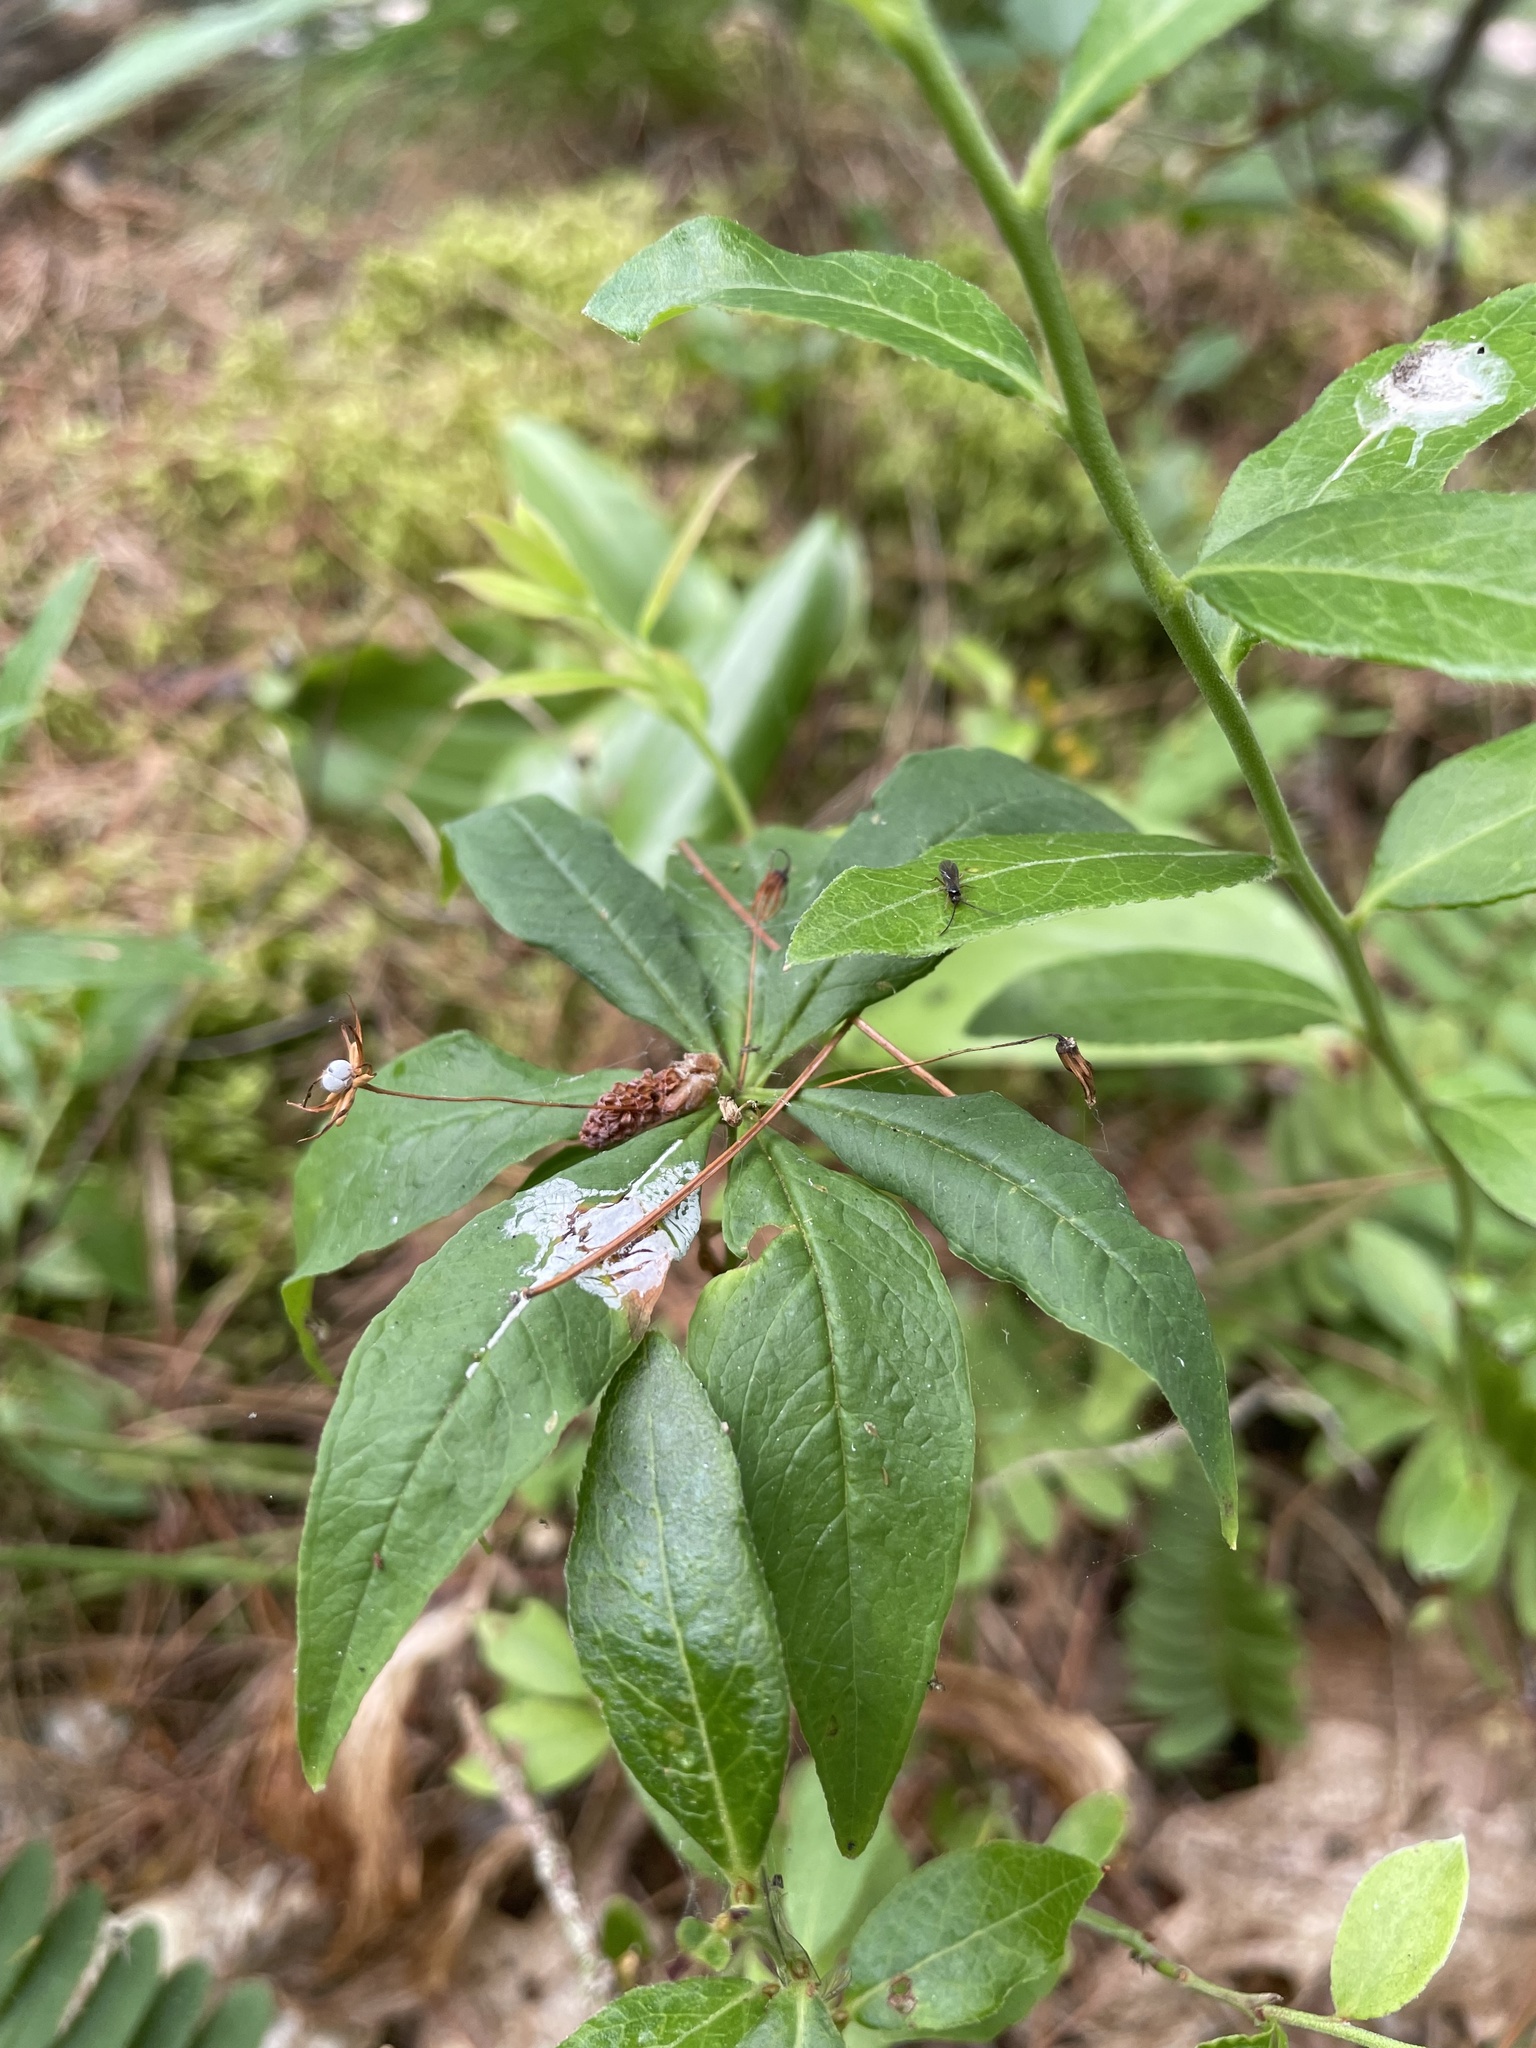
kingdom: Plantae
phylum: Tracheophyta
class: Magnoliopsida
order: Ericales
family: Primulaceae
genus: Lysimachia
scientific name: Lysimachia borealis
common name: American starflower
